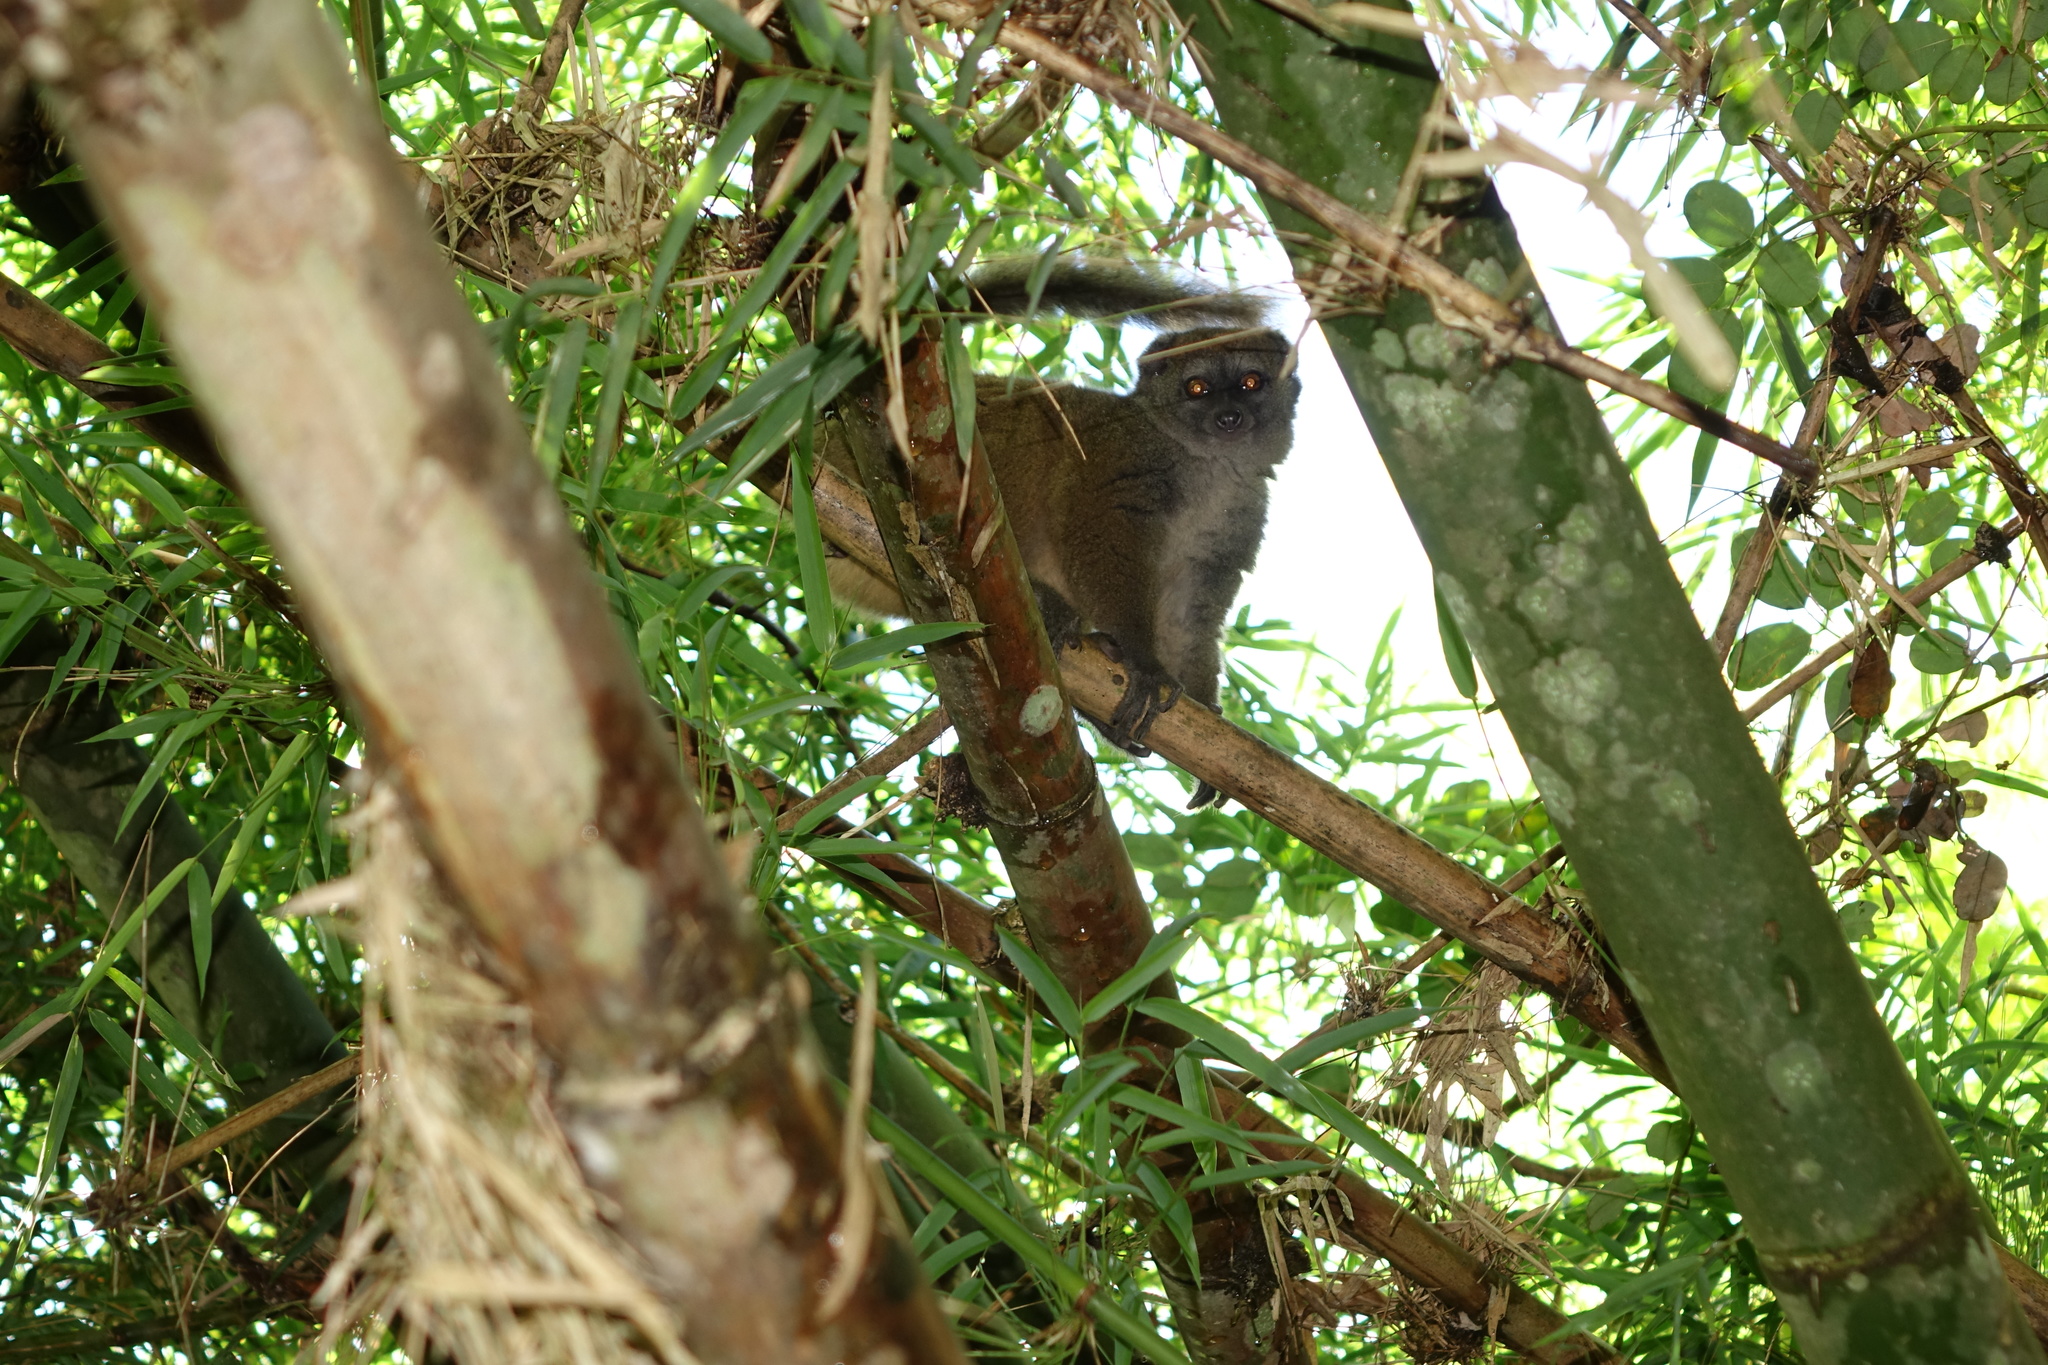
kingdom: Animalia
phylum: Chordata
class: Mammalia
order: Primates
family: Lemuridae
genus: Hapalemur
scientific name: Hapalemur occidentalis
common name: Sambirano bamboo lemur
